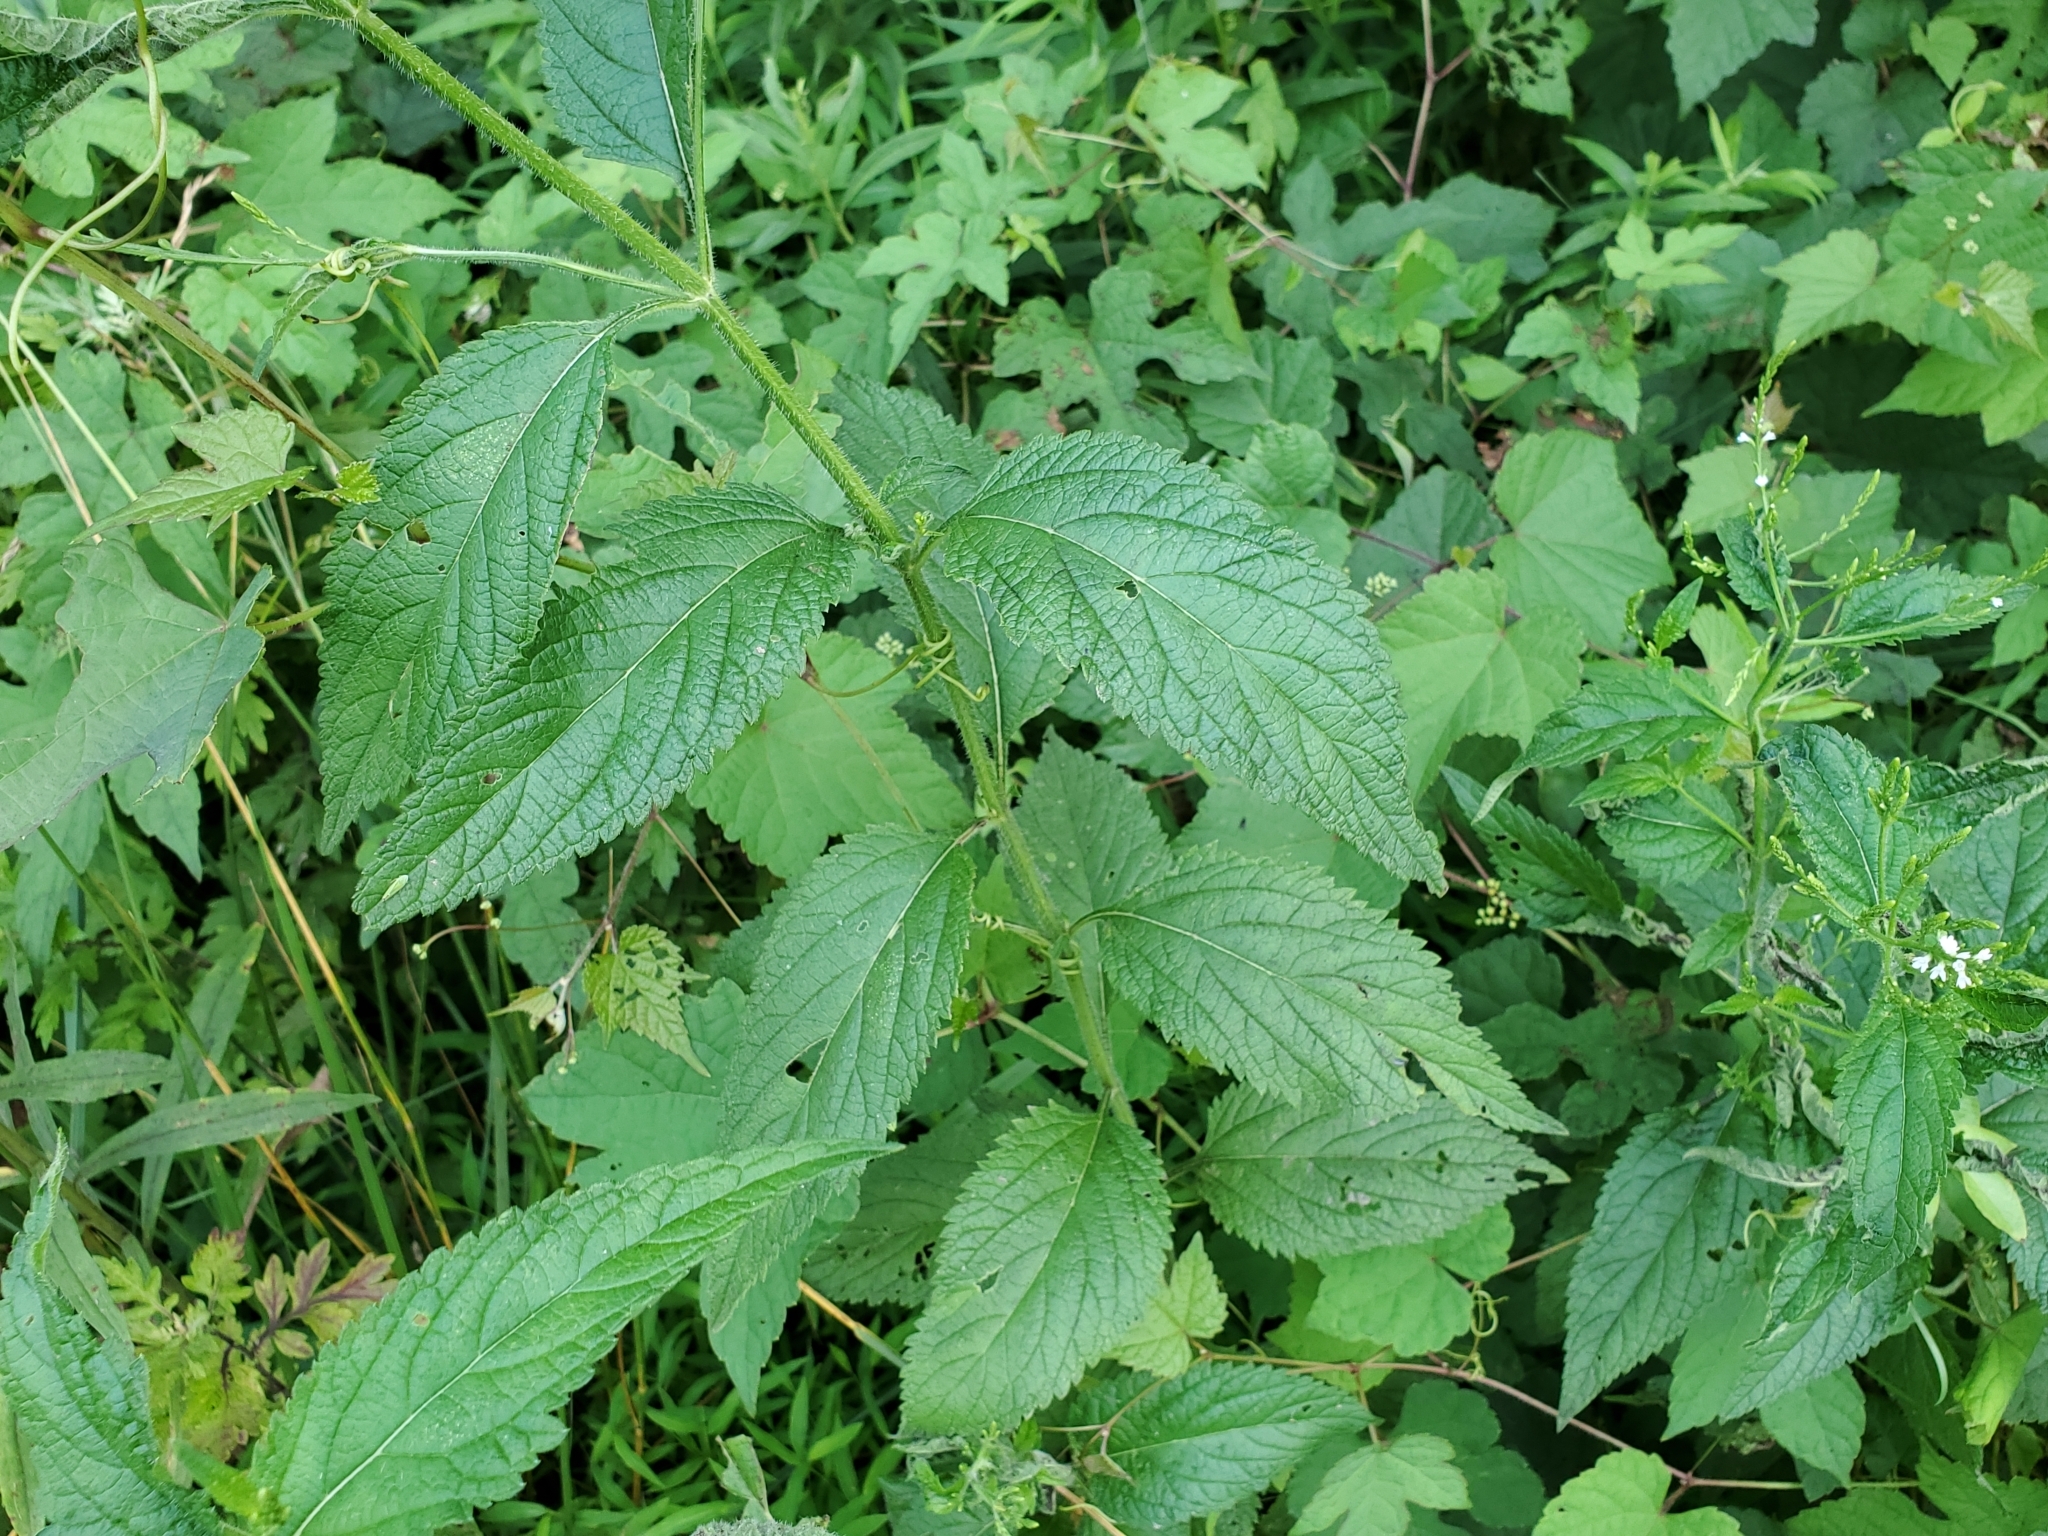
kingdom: Plantae
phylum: Tracheophyta
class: Magnoliopsida
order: Lamiales
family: Verbenaceae
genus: Verbena
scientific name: Verbena urticifolia
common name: Nettle-leaved vervain
